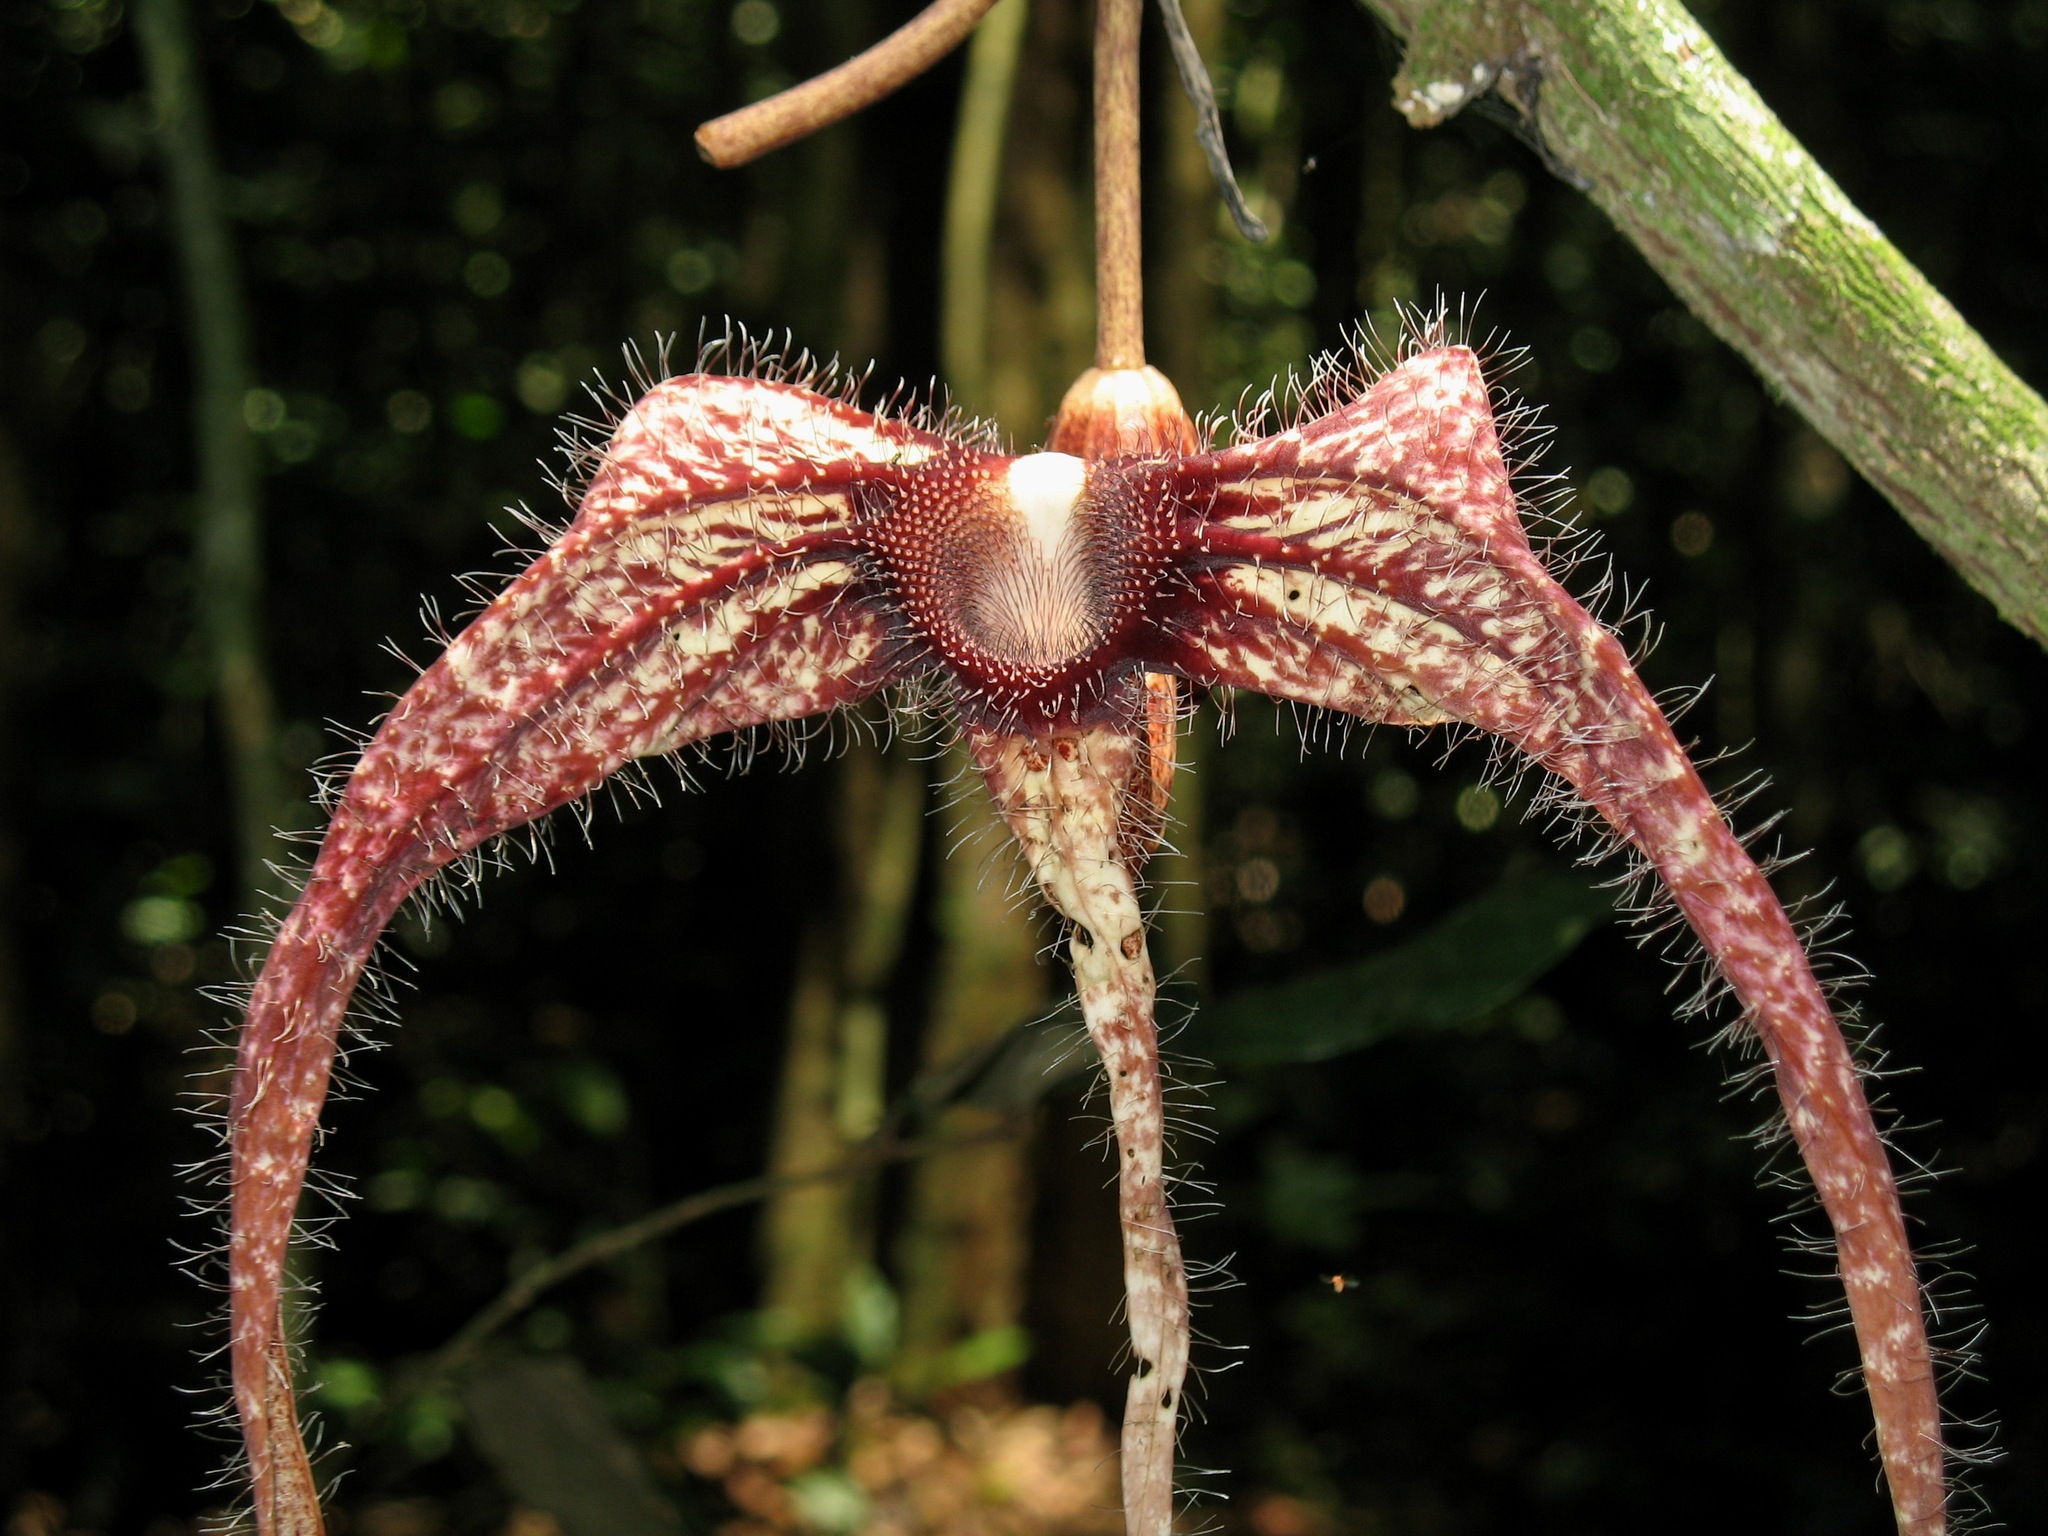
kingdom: Plantae
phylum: Tracheophyta
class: Magnoliopsida
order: Piperales
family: Aristolochiaceae
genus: Aristolochia
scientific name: Aristolochia macrocarpa
